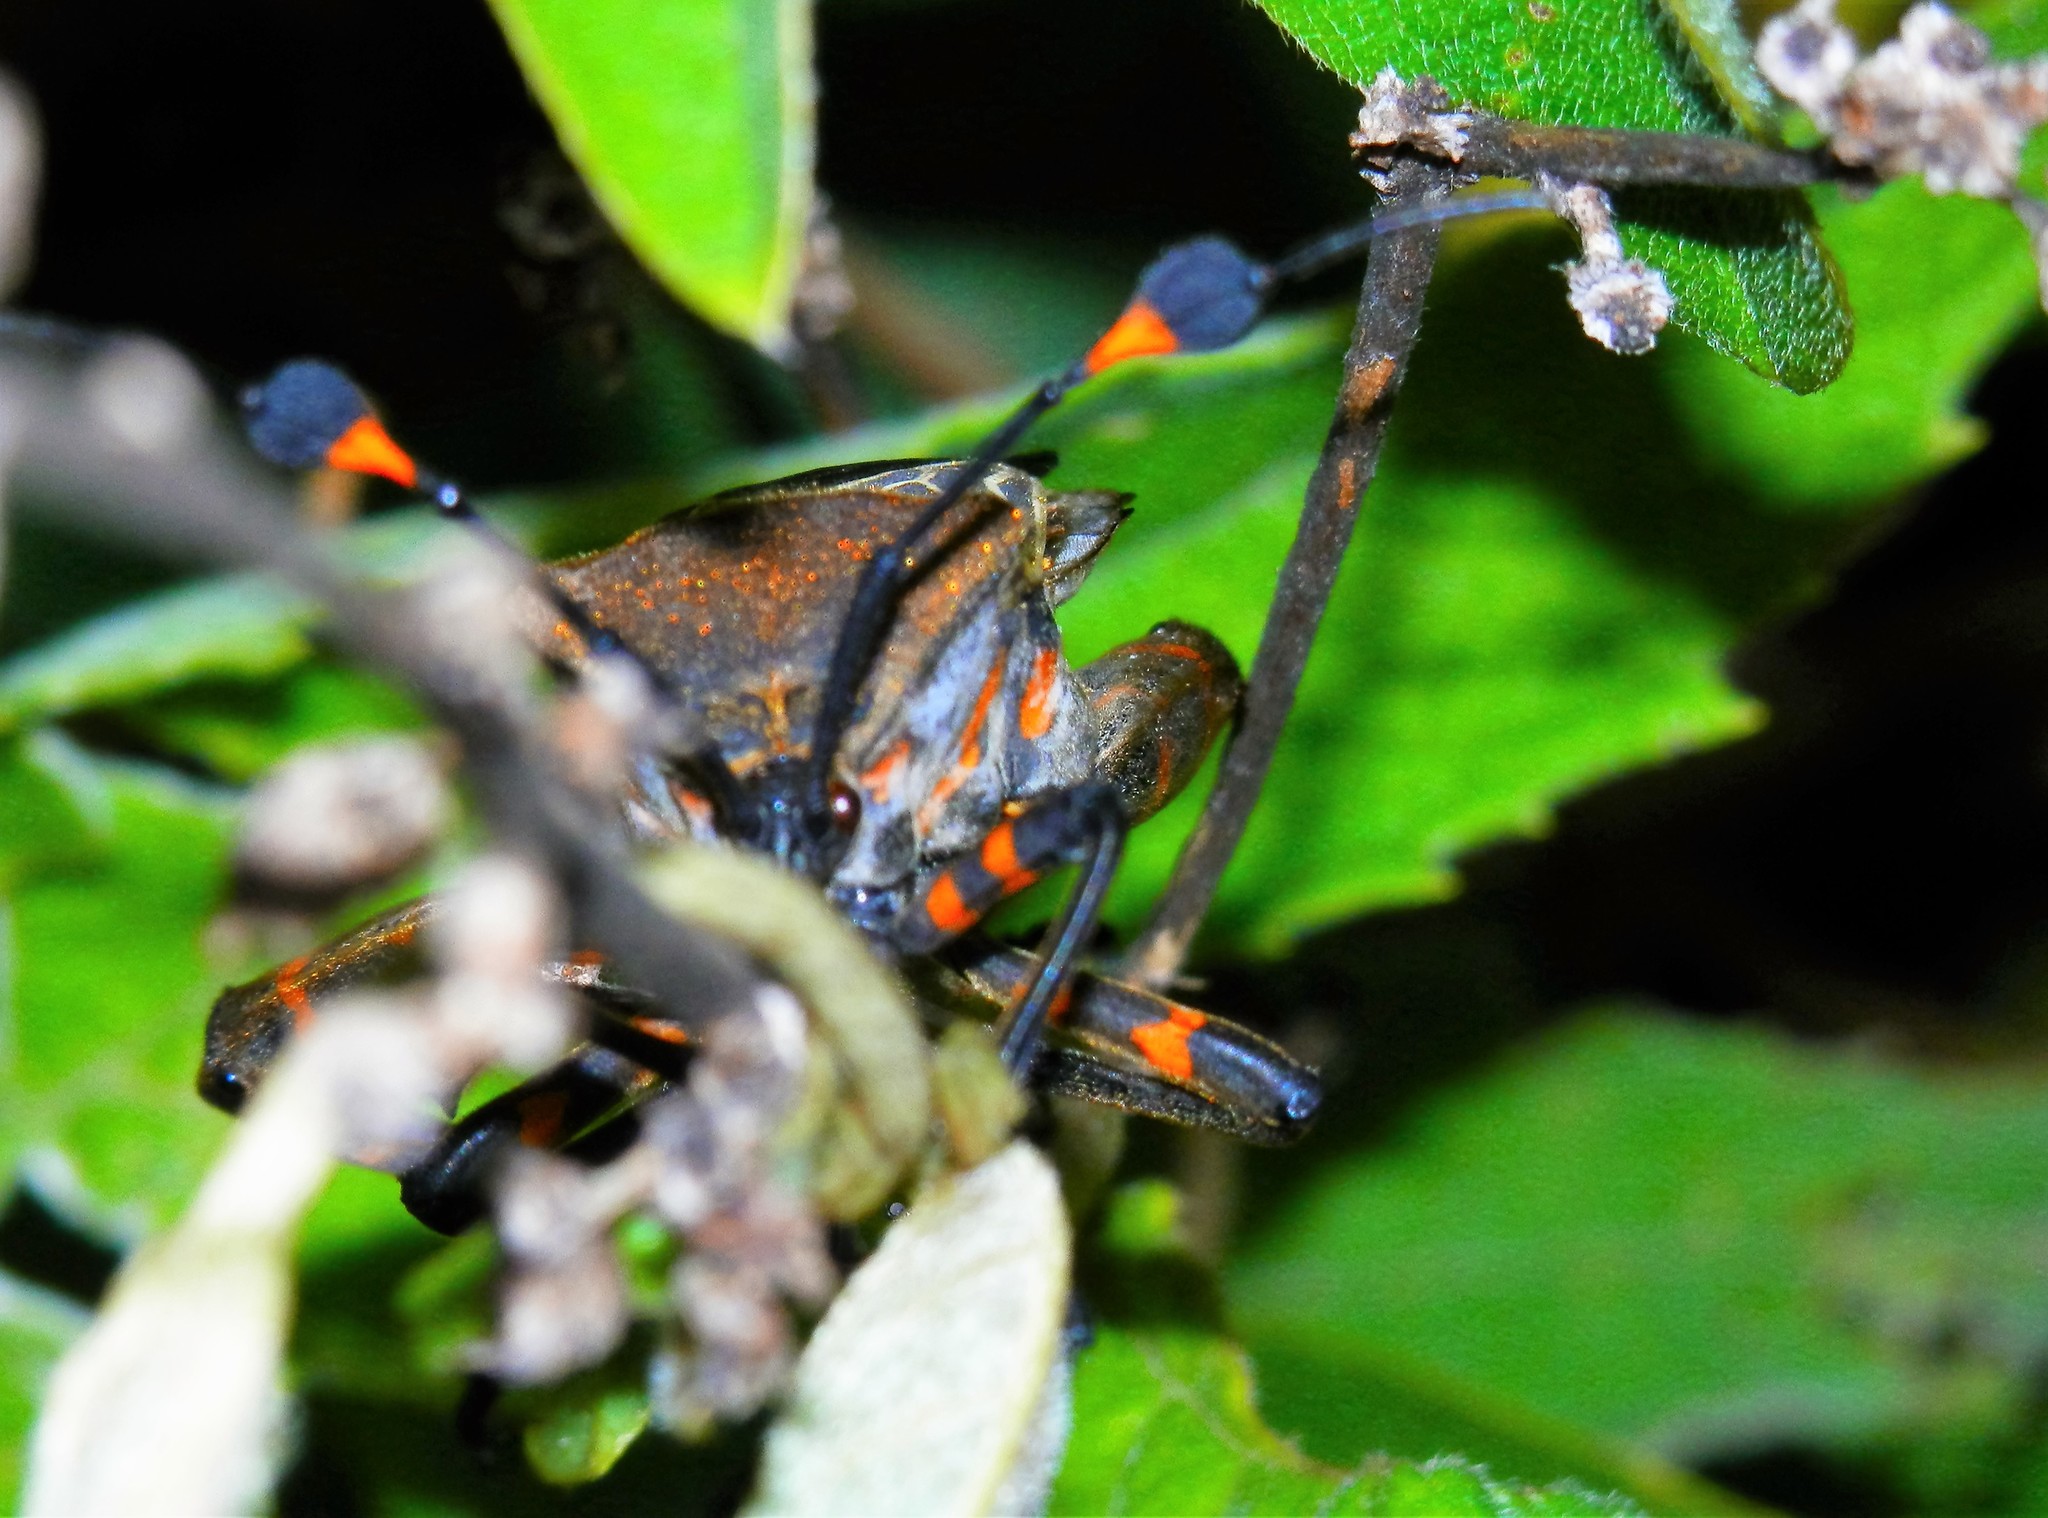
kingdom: Animalia
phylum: Arthropoda
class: Insecta
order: Hemiptera
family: Coreidae
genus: Thasus
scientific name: Thasus
